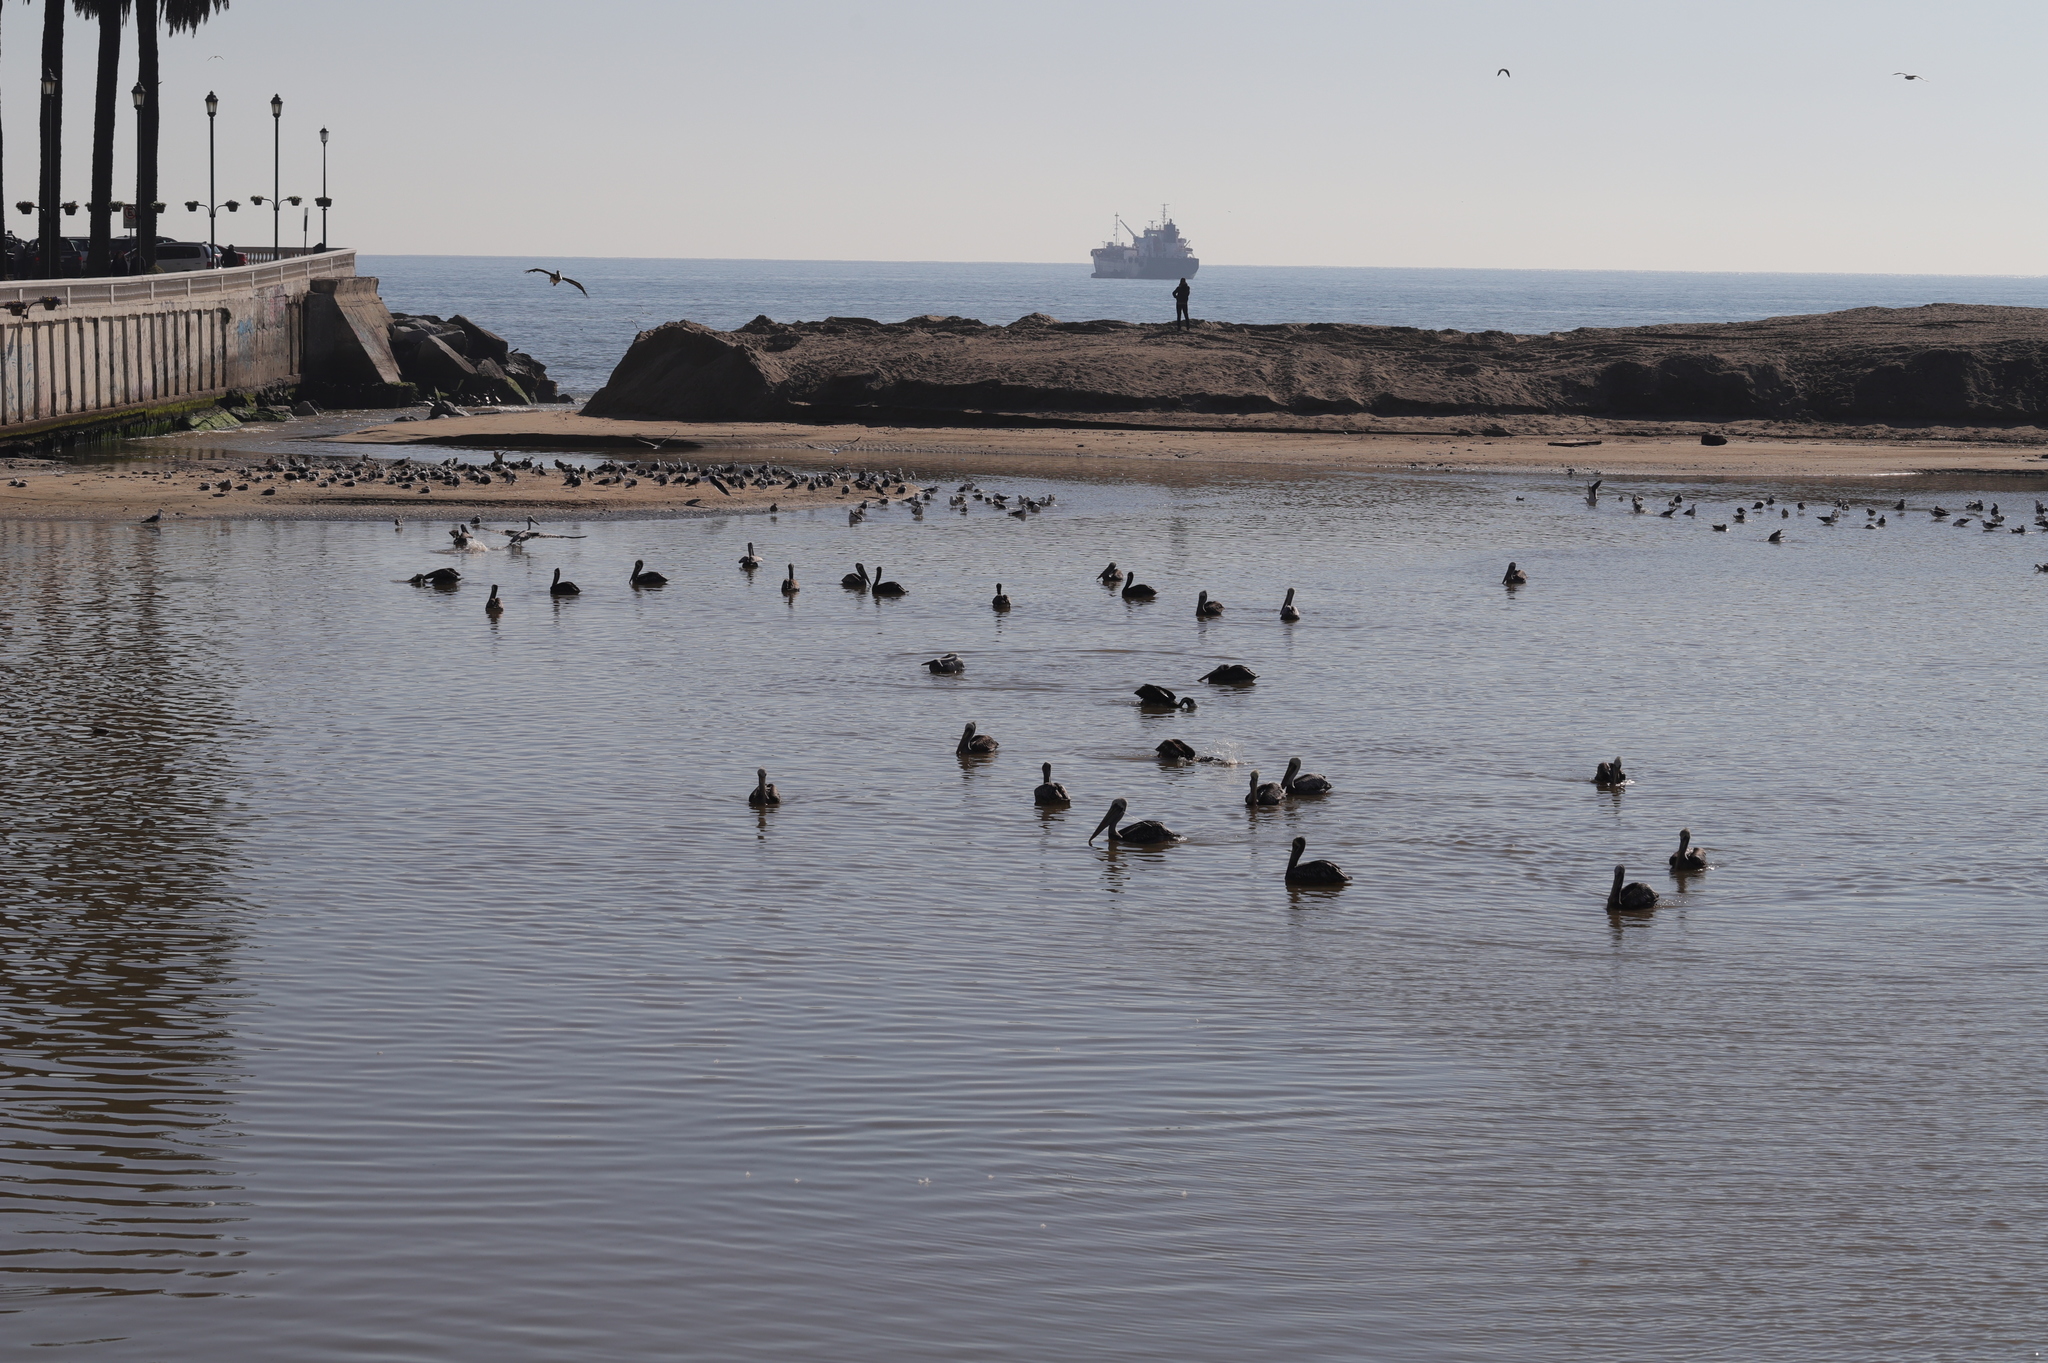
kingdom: Animalia
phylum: Chordata
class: Aves
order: Pelecaniformes
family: Pelecanidae
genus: Pelecanus
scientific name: Pelecanus thagus
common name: Peruvian pelican
